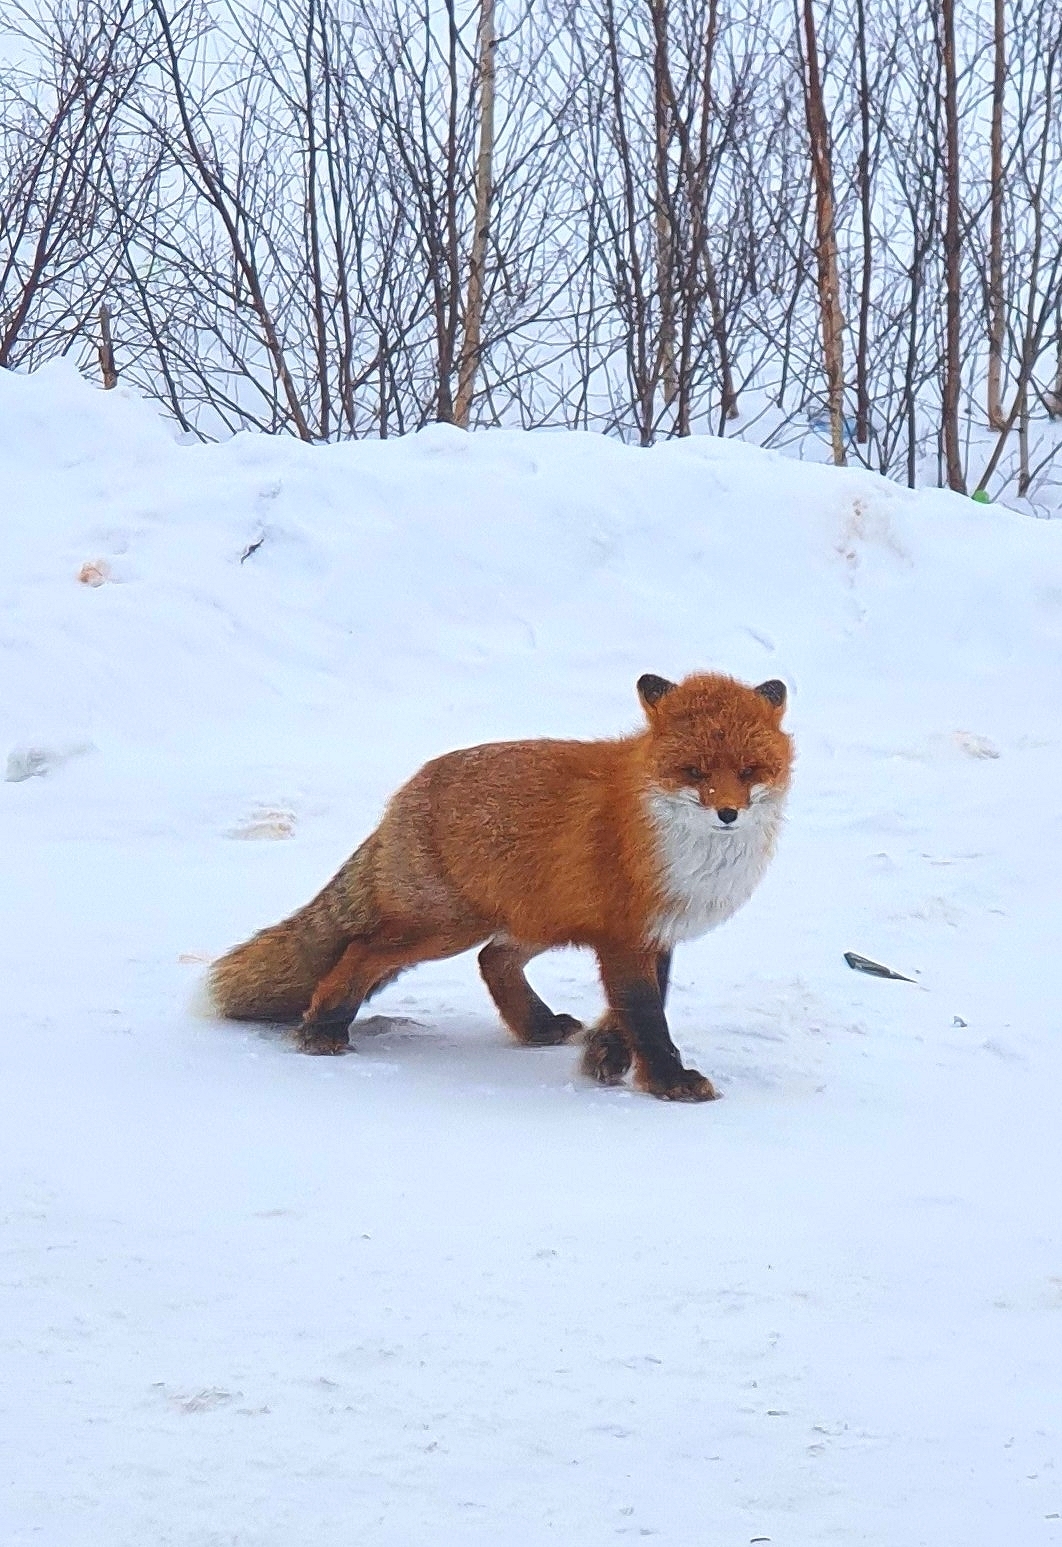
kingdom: Animalia
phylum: Chordata
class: Mammalia
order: Carnivora
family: Canidae
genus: Vulpes
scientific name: Vulpes vulpes
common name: Red fox
